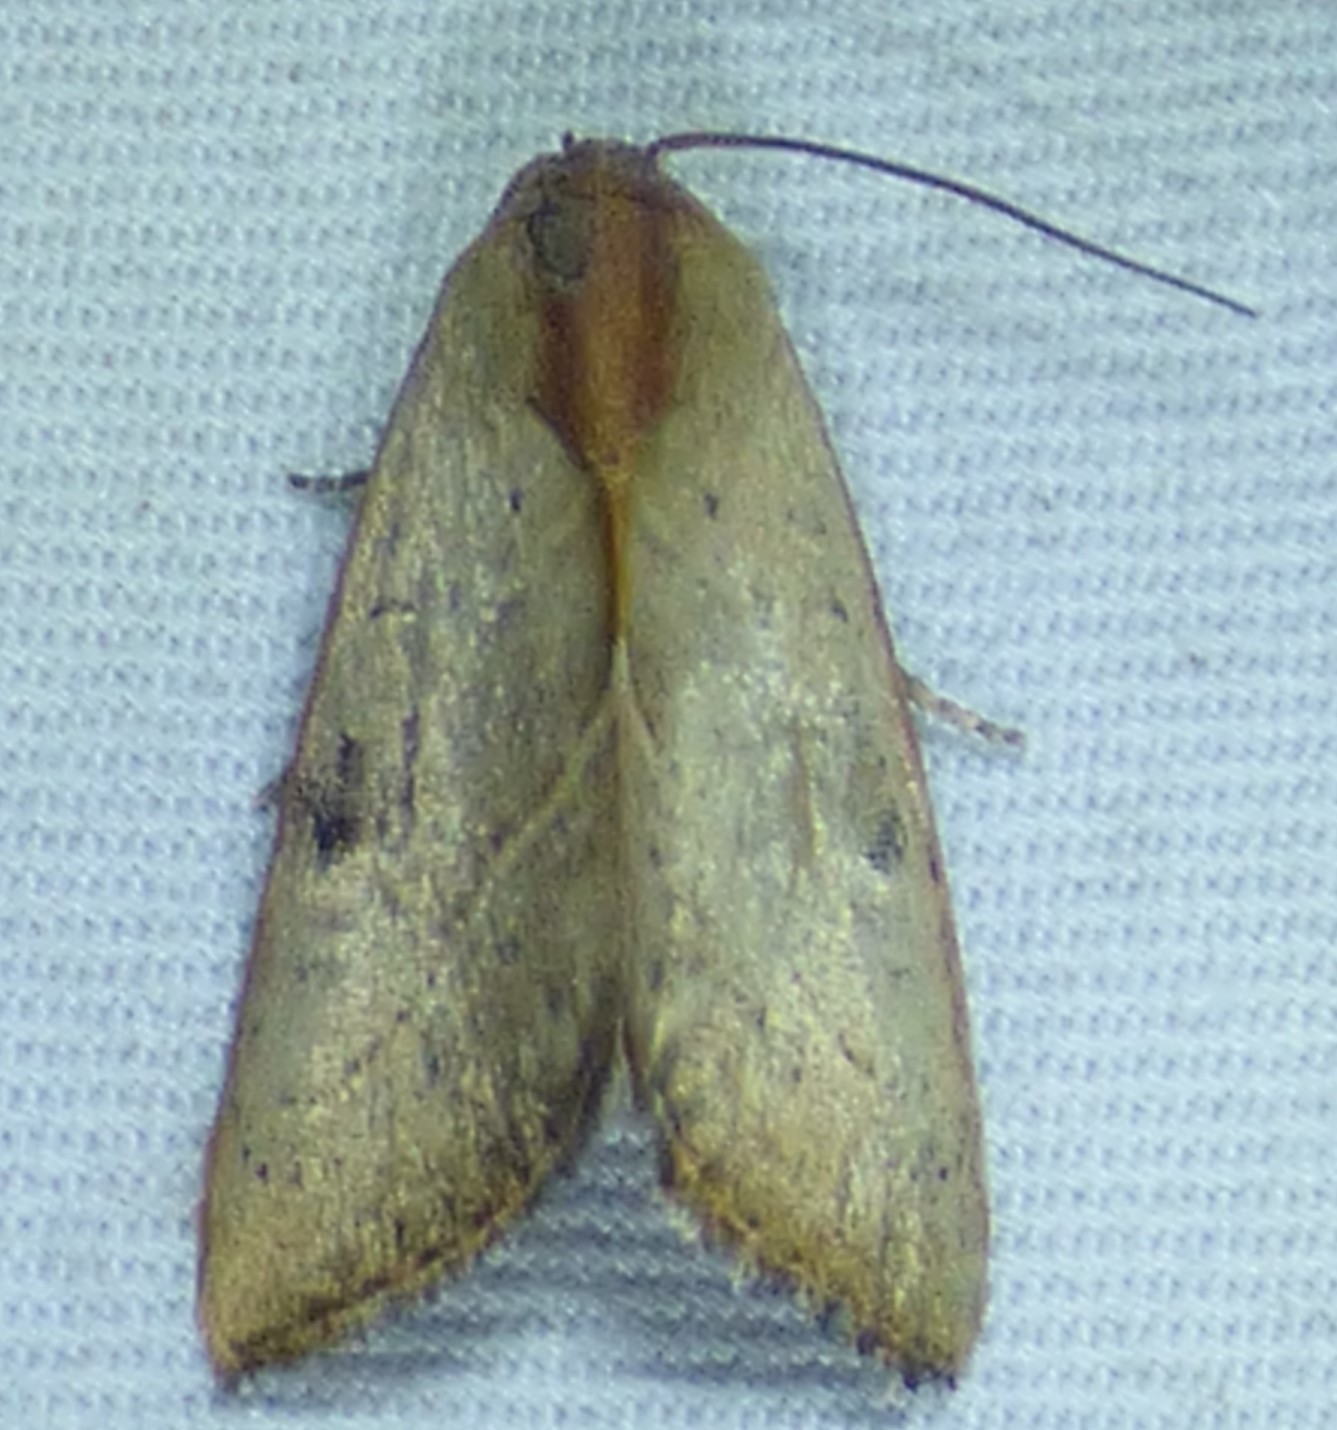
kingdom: Animalia
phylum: Arthropoda
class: Insecta
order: Lepidoptera
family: Noctuidae
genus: Galgula
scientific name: Galgula partita
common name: Wedgeling
